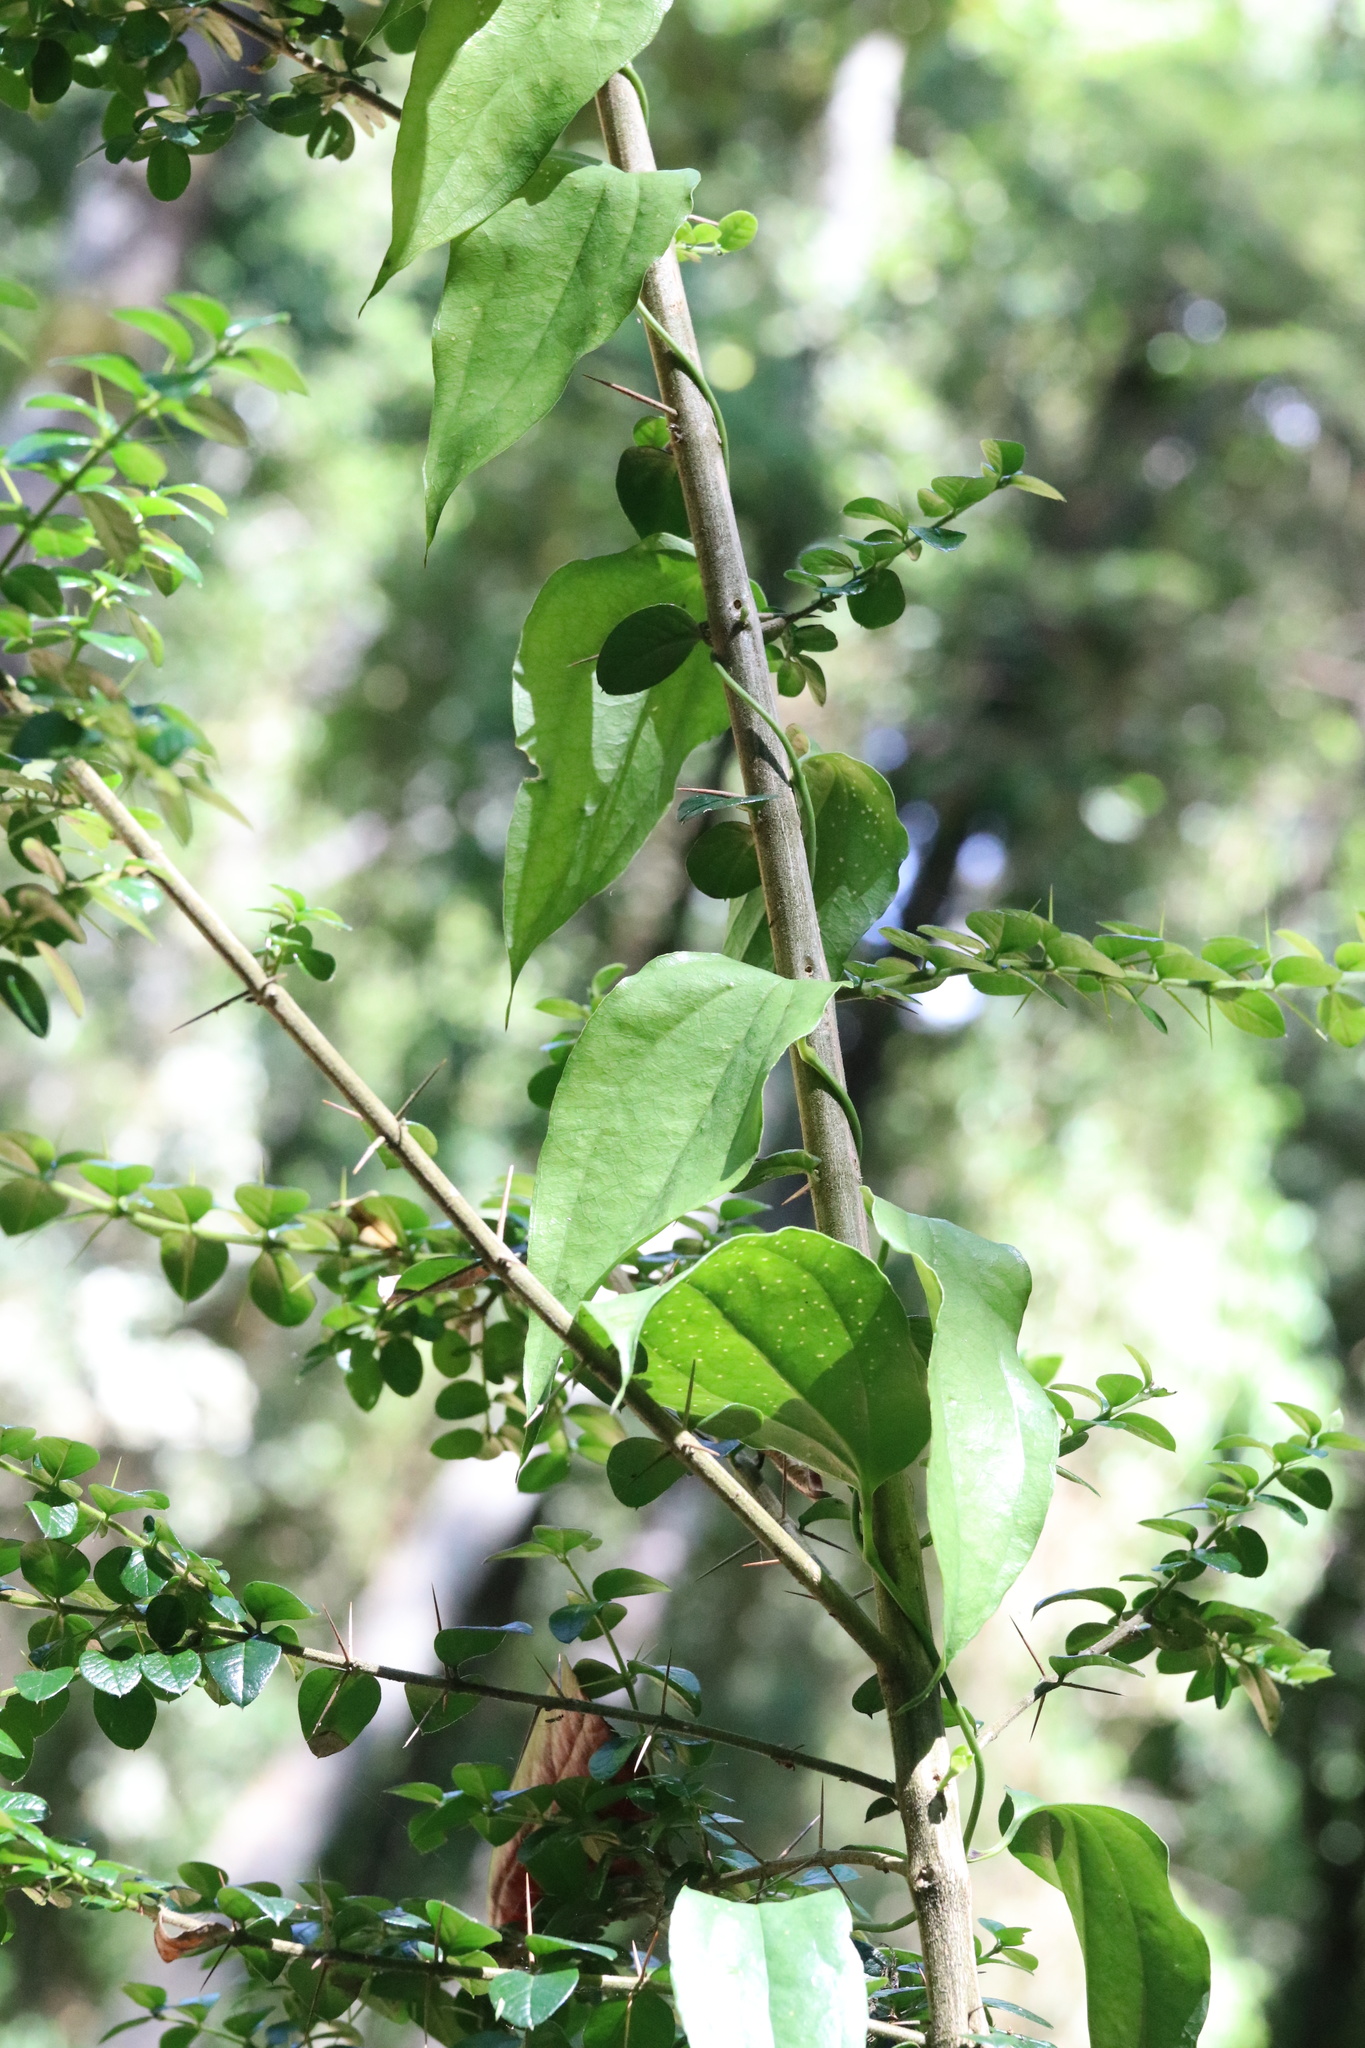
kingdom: Plantae
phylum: Tracheophyta
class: Liliopsida
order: Liliales
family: Philesiaceae
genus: Lapageria
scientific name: Lapageria rosea
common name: Chilean-bellflower
